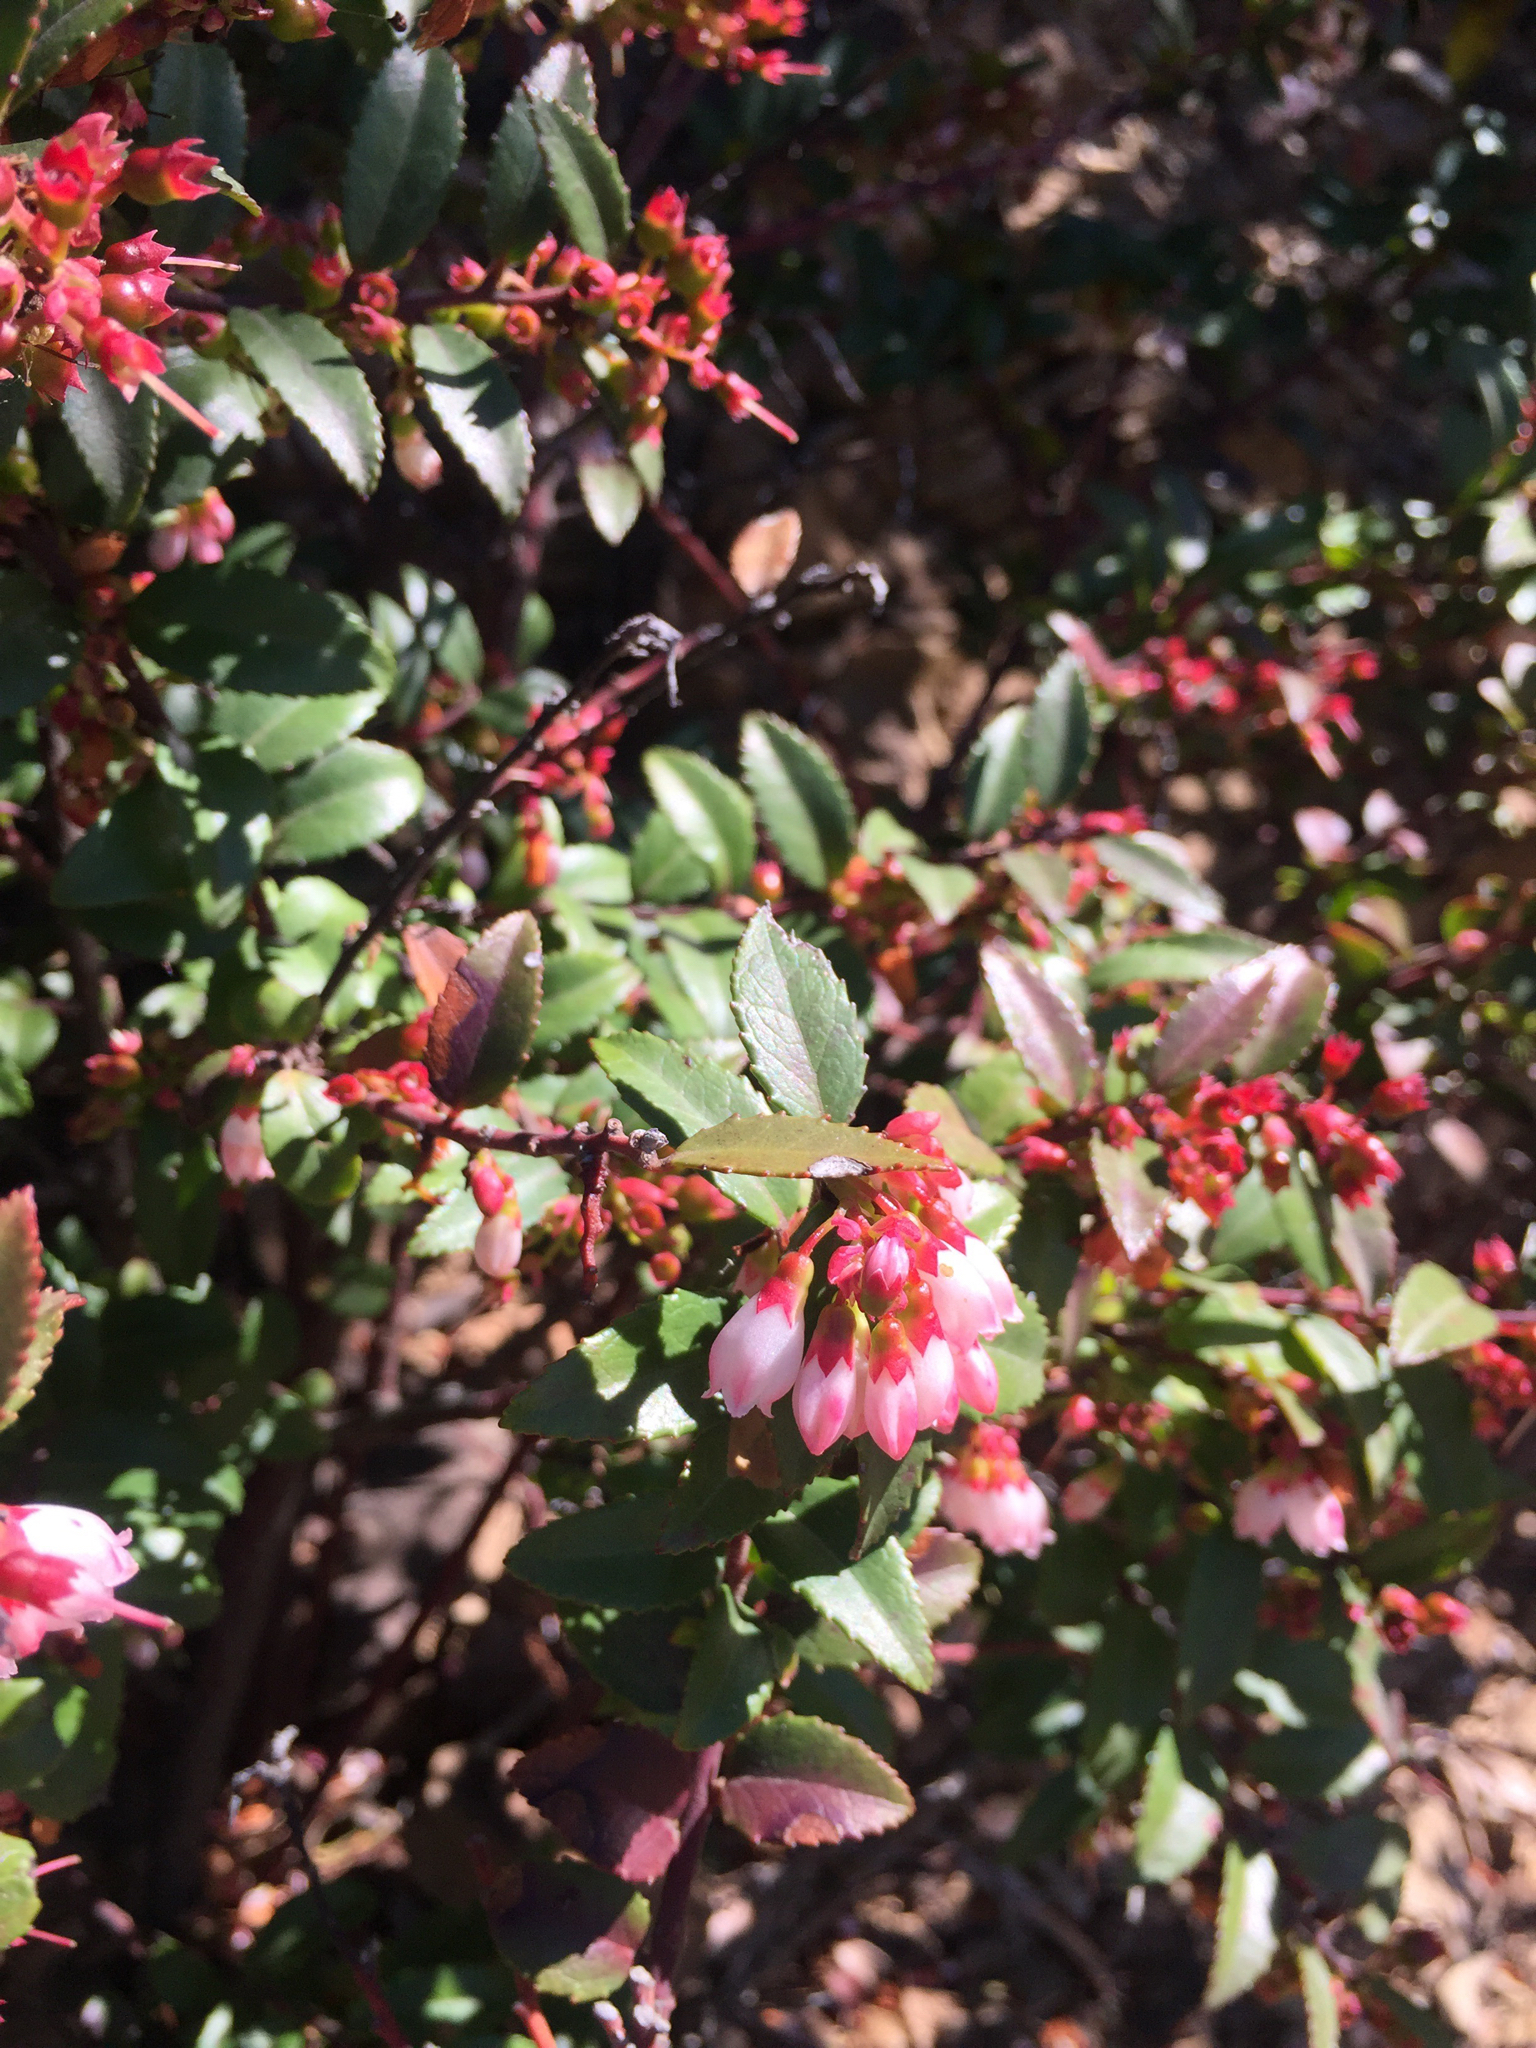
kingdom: Plantae
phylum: Tracheophyta
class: Magnoliopsida
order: Ericales
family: Ericaceae
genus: Vaccinium
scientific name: Vaccinium ovatum
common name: California-huckleberry
